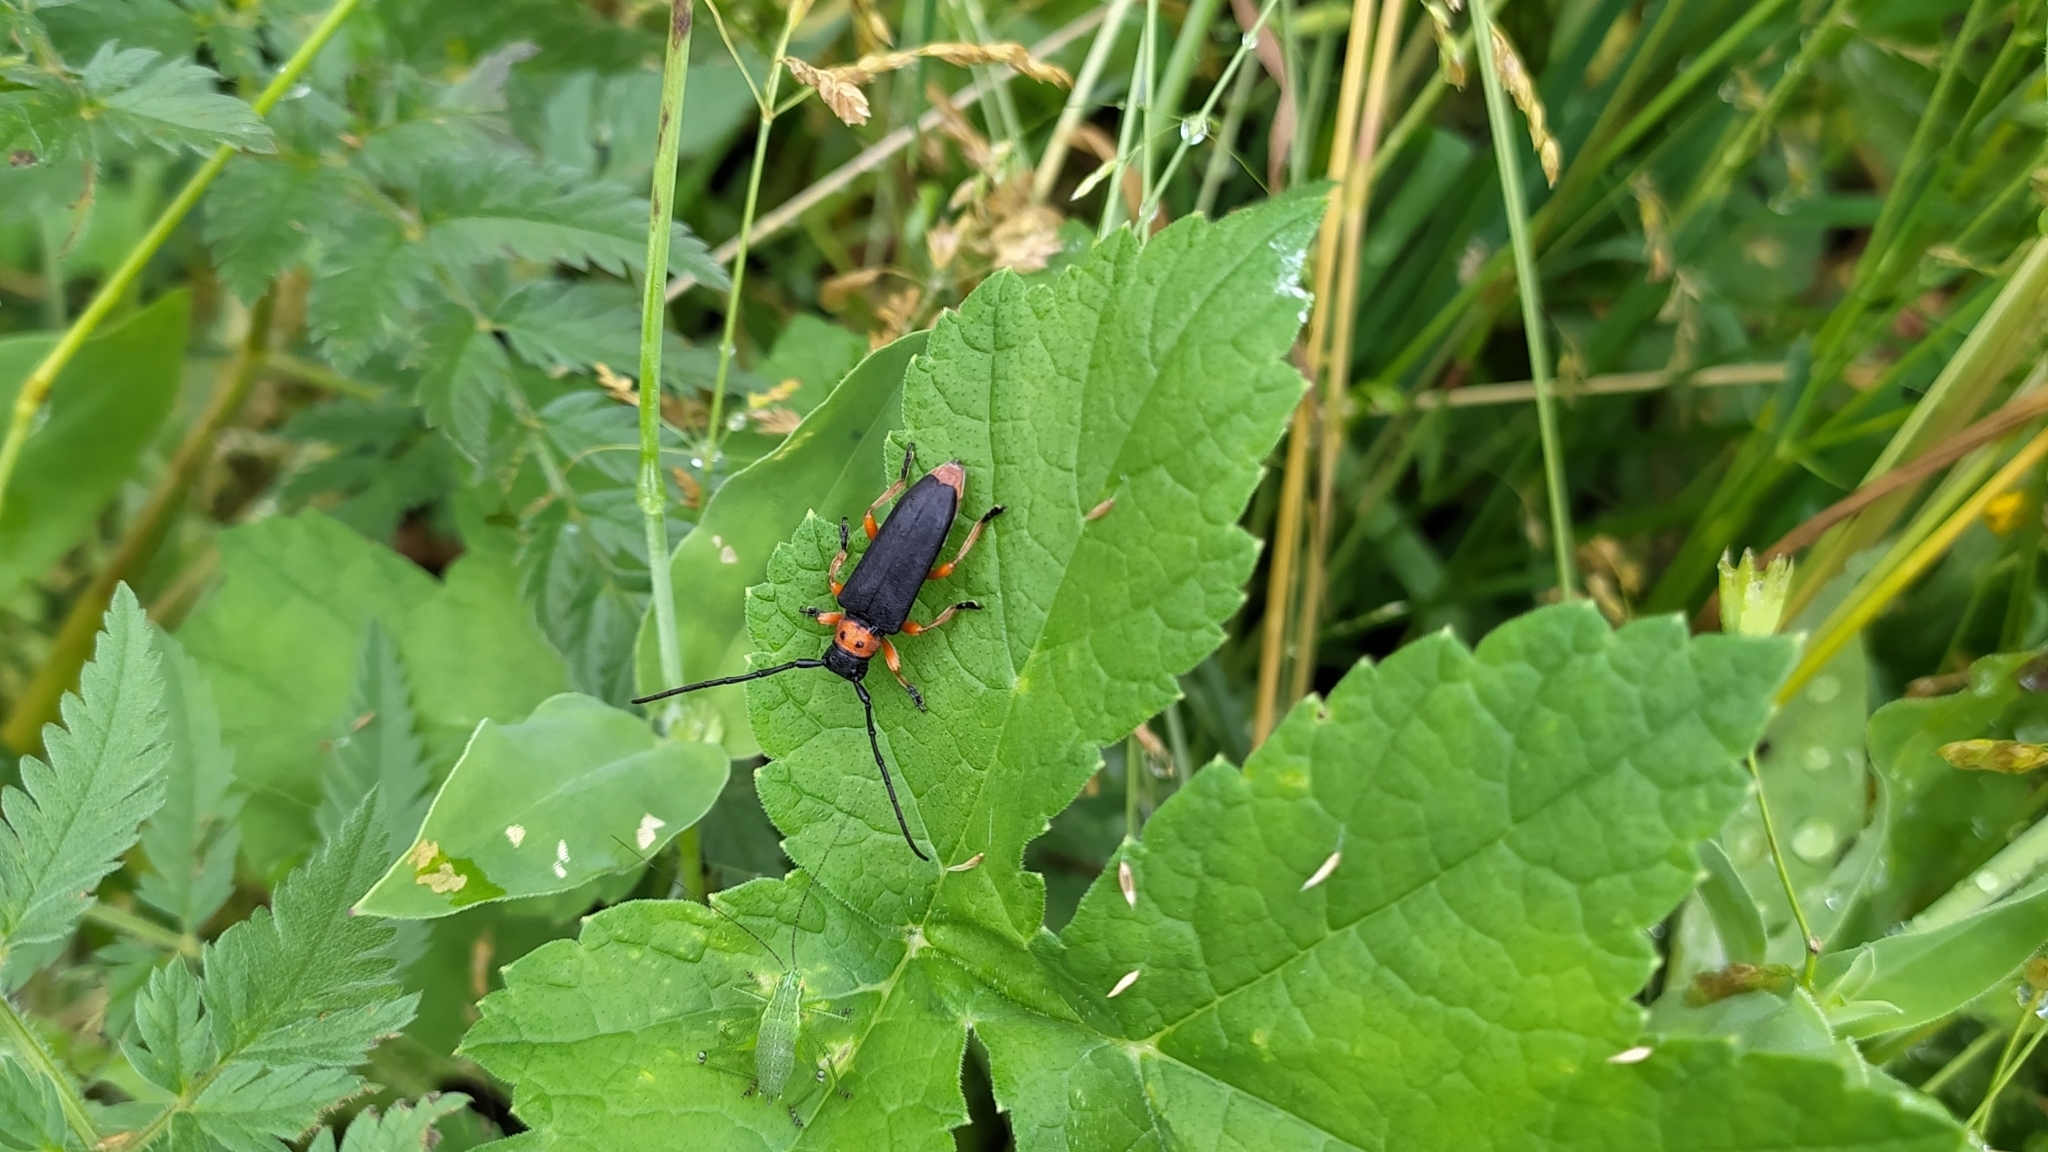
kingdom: Animalia
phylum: Arthropoda
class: Insecta
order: Coleoptera
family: Cerambycidae
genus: Phytoecia
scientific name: Phytoecia affinis
